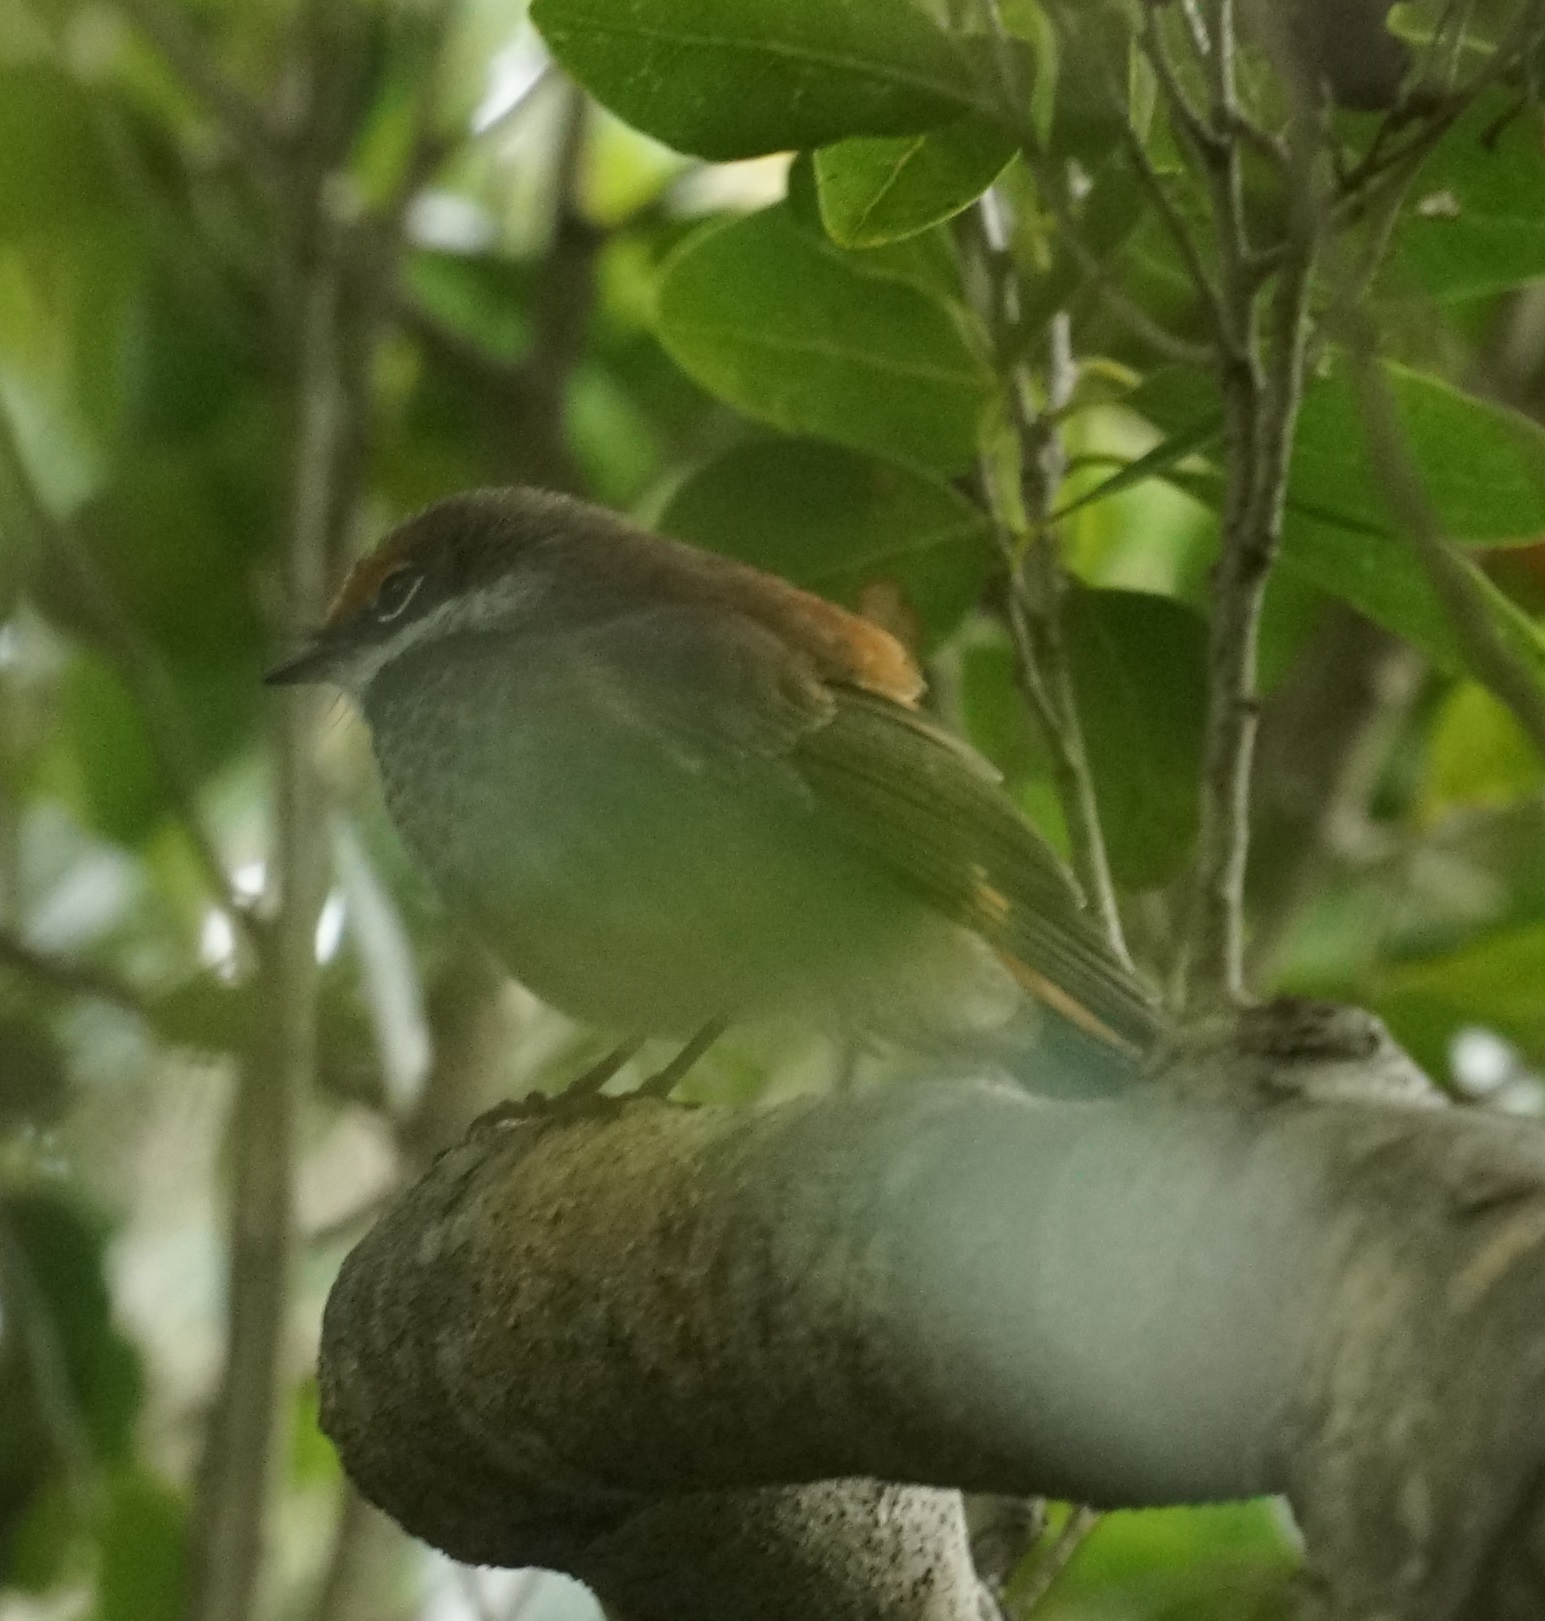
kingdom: Animalia
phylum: Chordata
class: Aves
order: Passeriformes
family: Rhipiduridae
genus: Rhipidura
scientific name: Rhipidura rufifrons
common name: Rufous fantail
